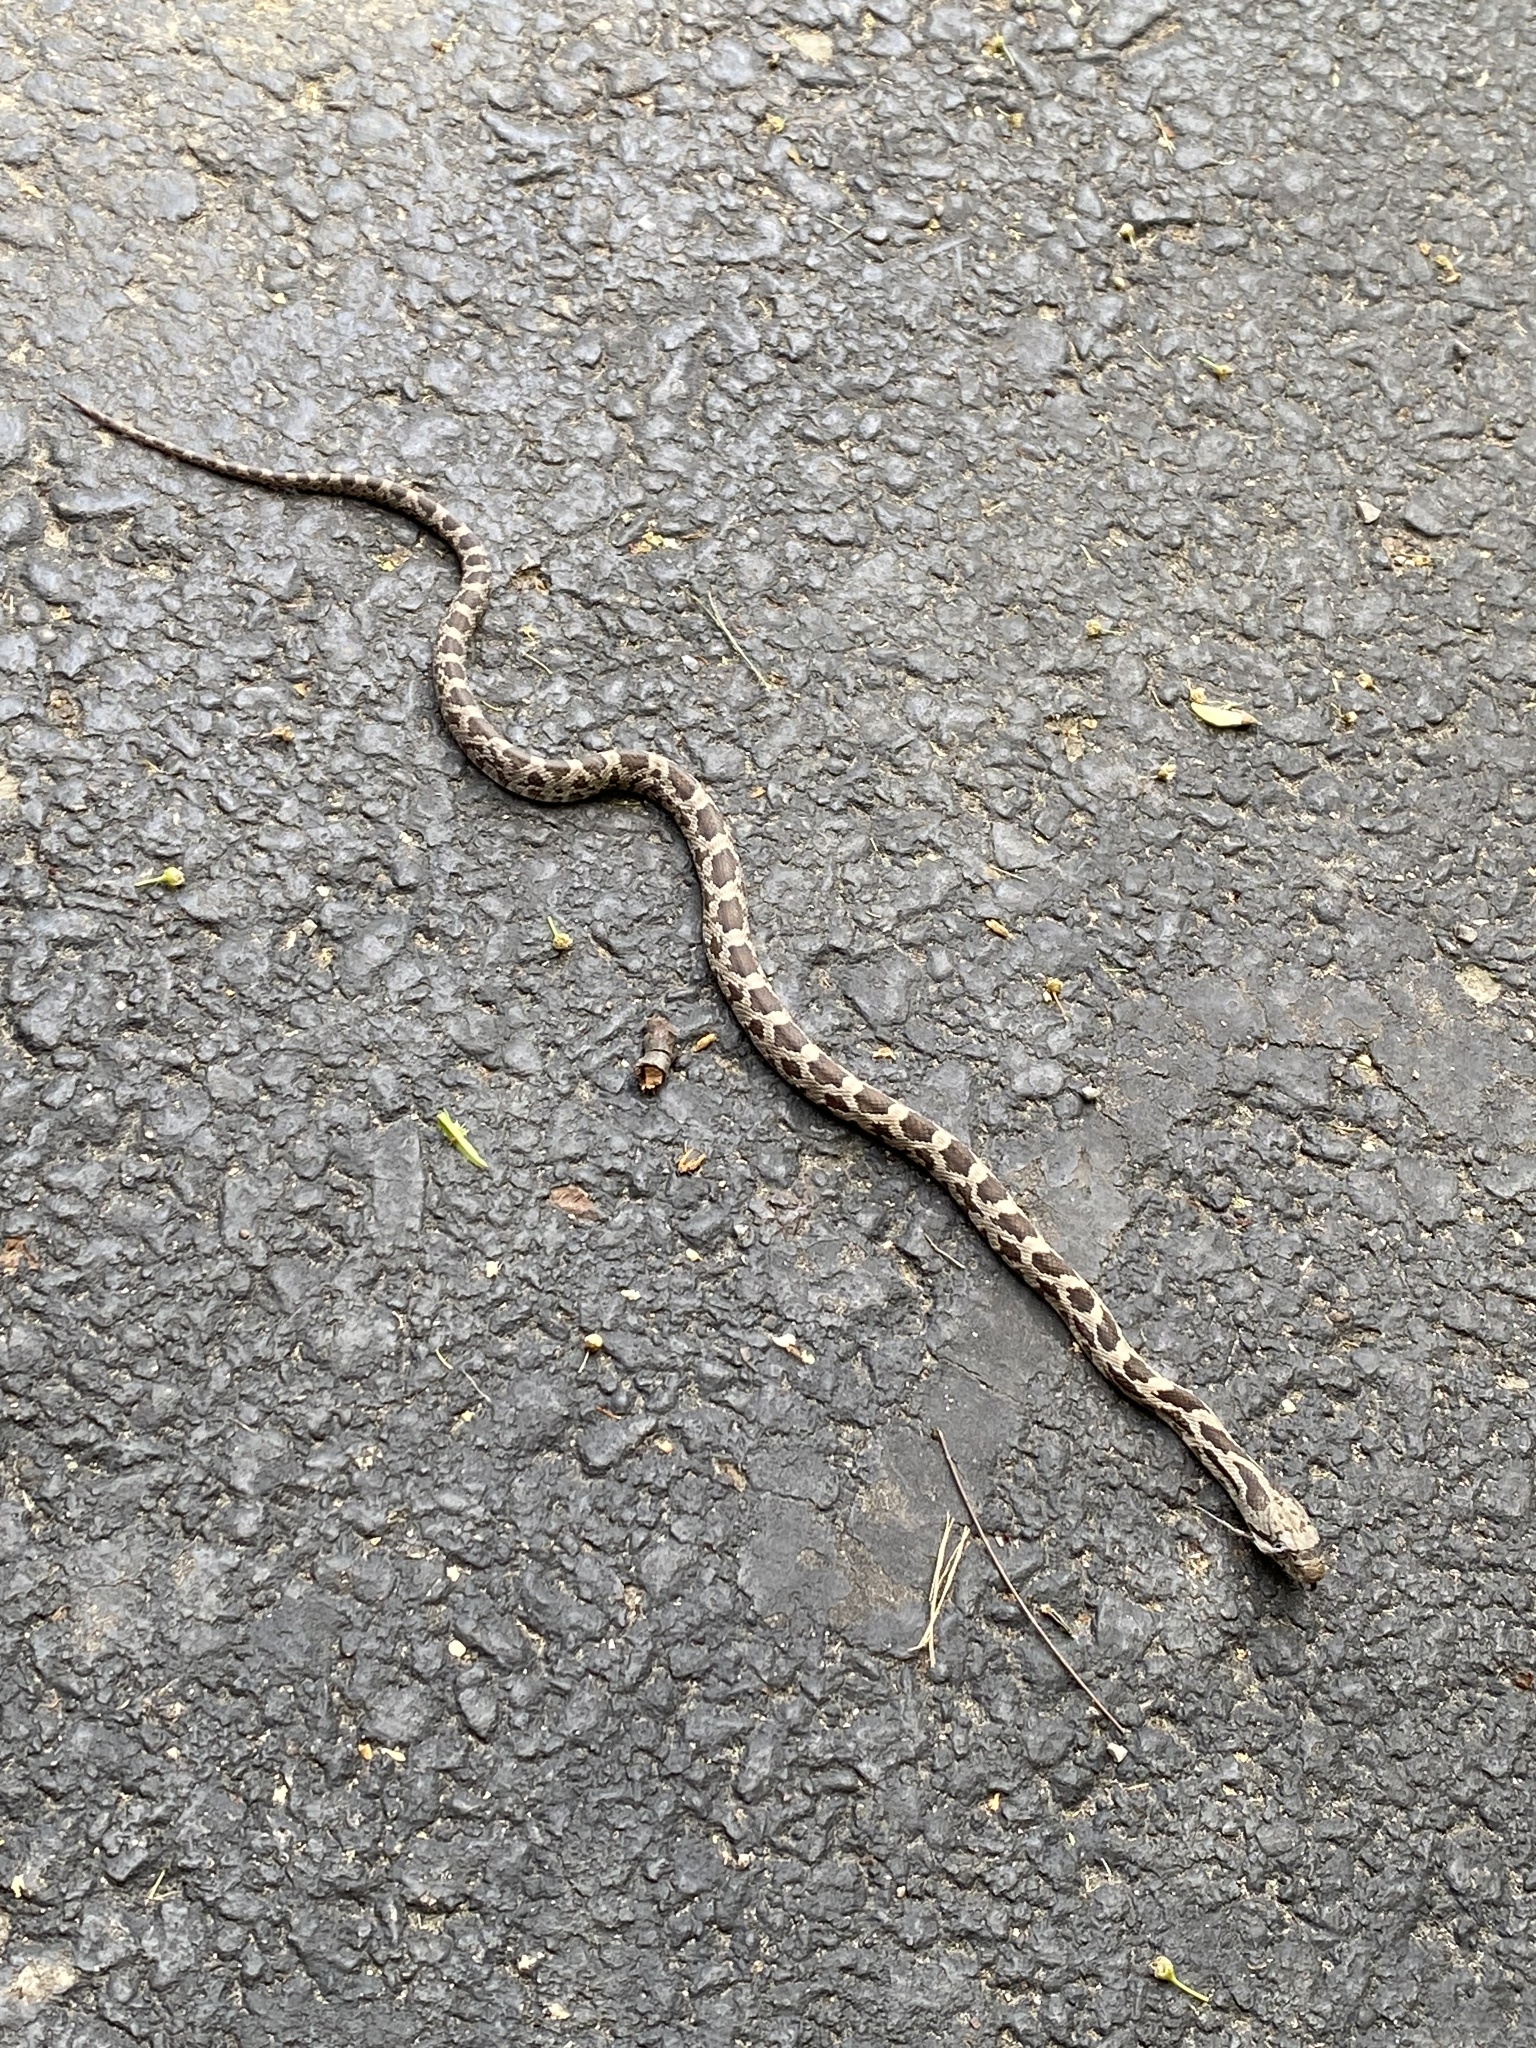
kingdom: Animalia
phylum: Chordata
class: Squamata
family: Colubridae
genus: Pantherophis
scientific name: Pantherophis spiloides
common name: Gray rat snake
